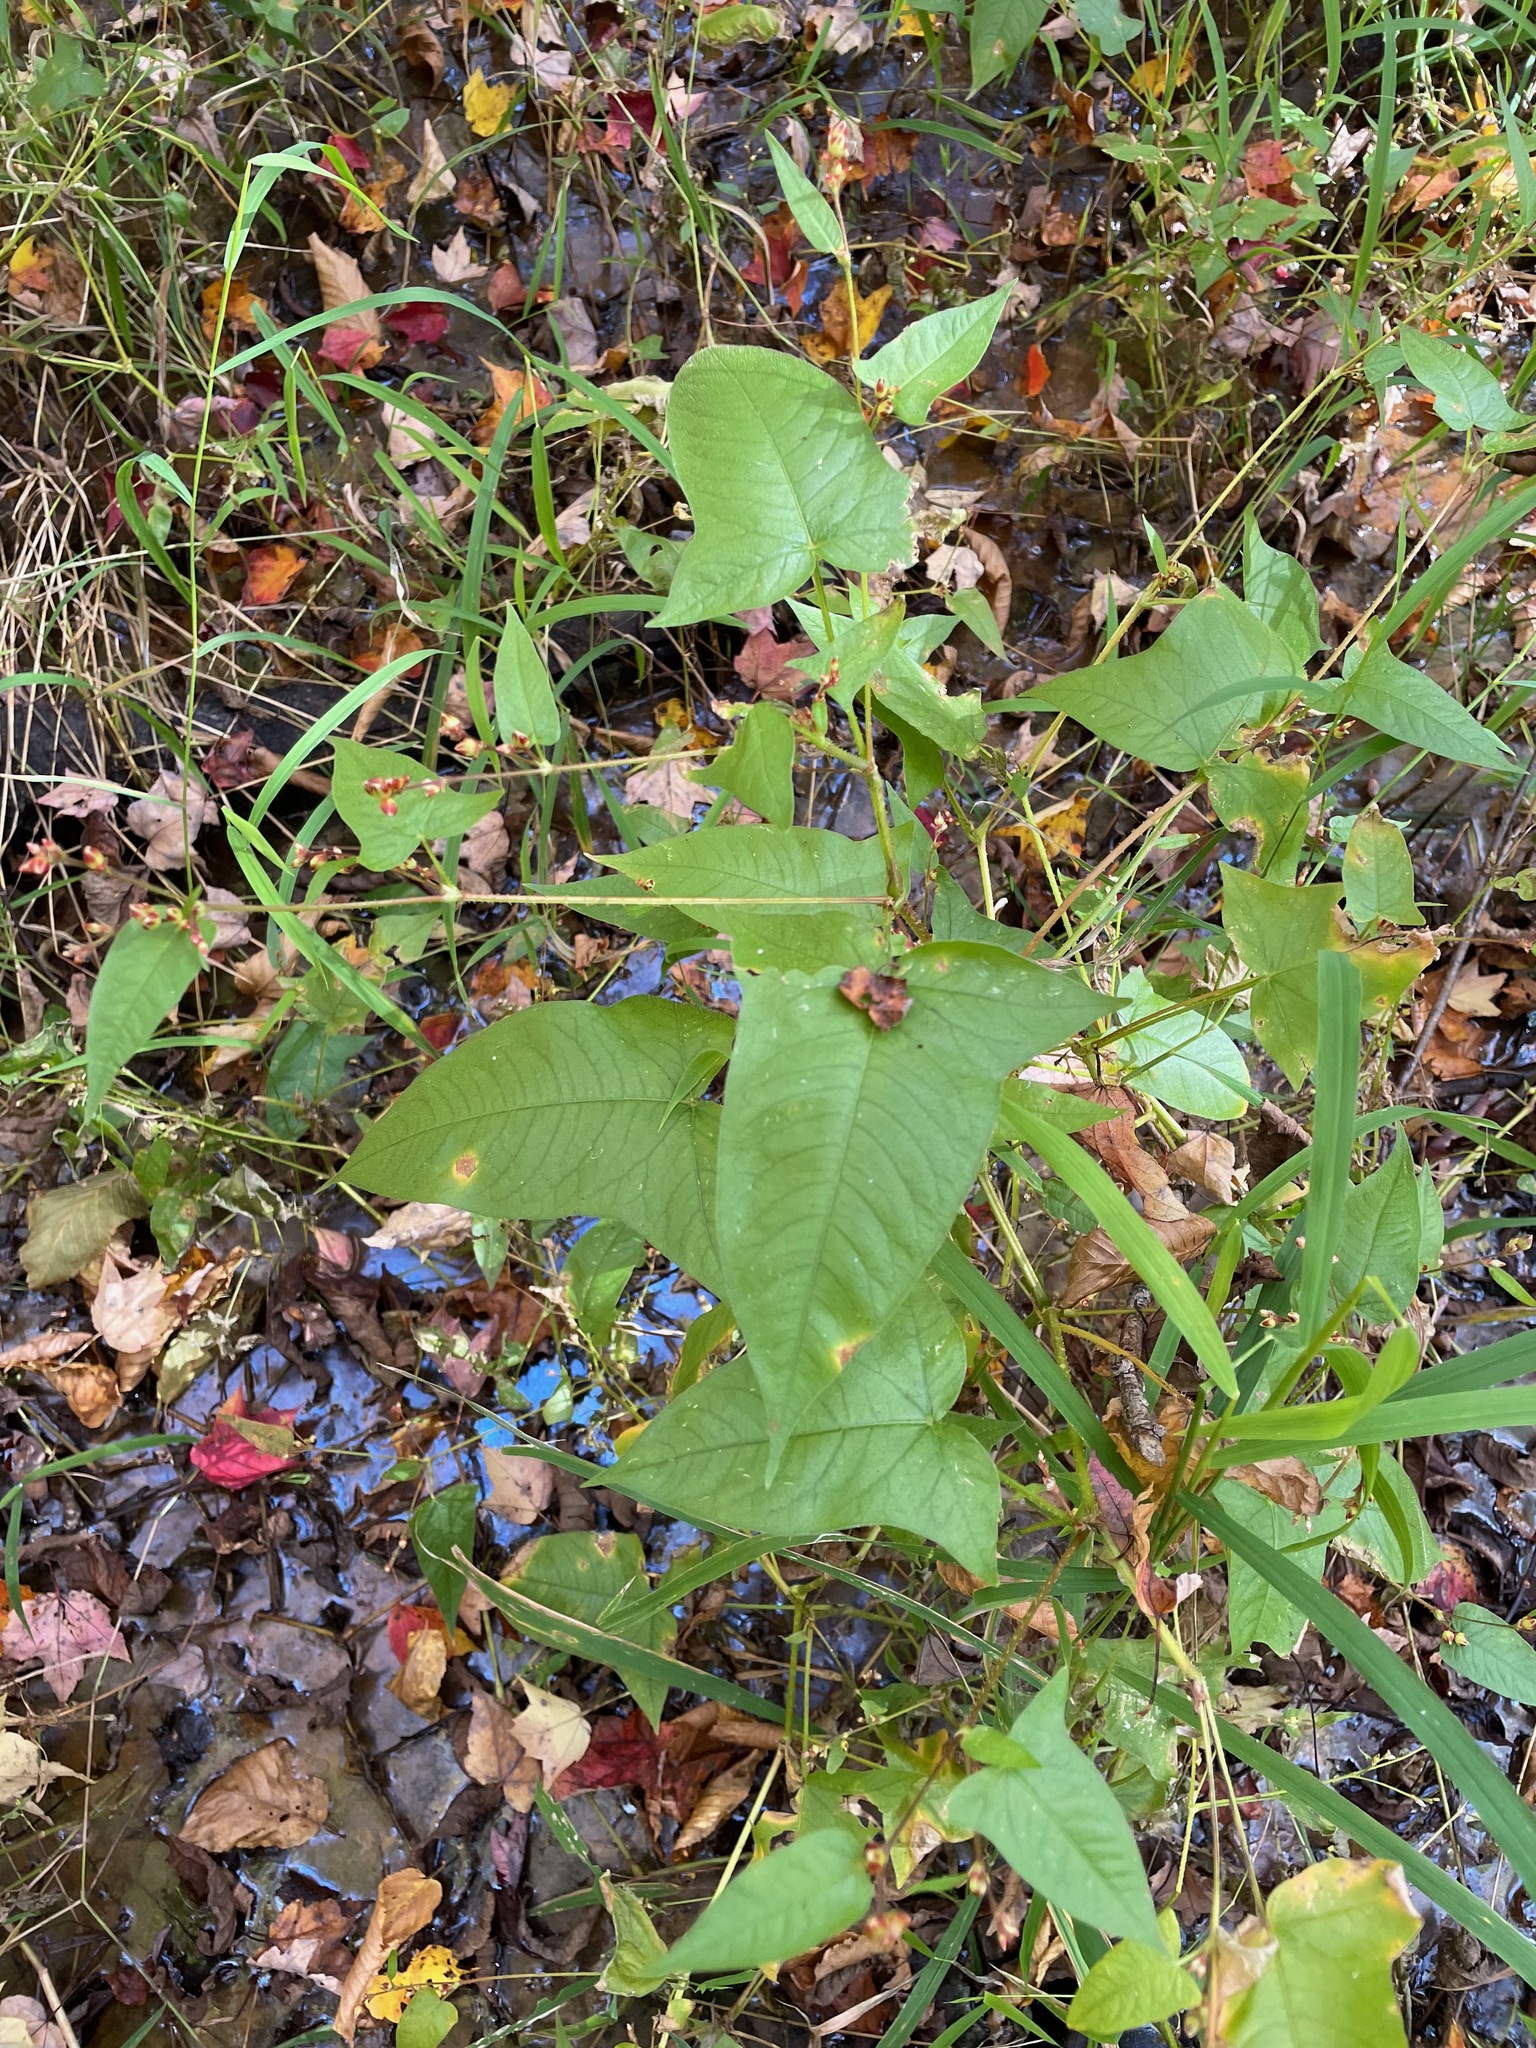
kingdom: Plantae
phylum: Tracheophyta
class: Magnoliopsida
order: Caryophyllales
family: Polygonaceae
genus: Persicaria
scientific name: Persicaria arifolia
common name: Halberd-leaved tear-thumb
